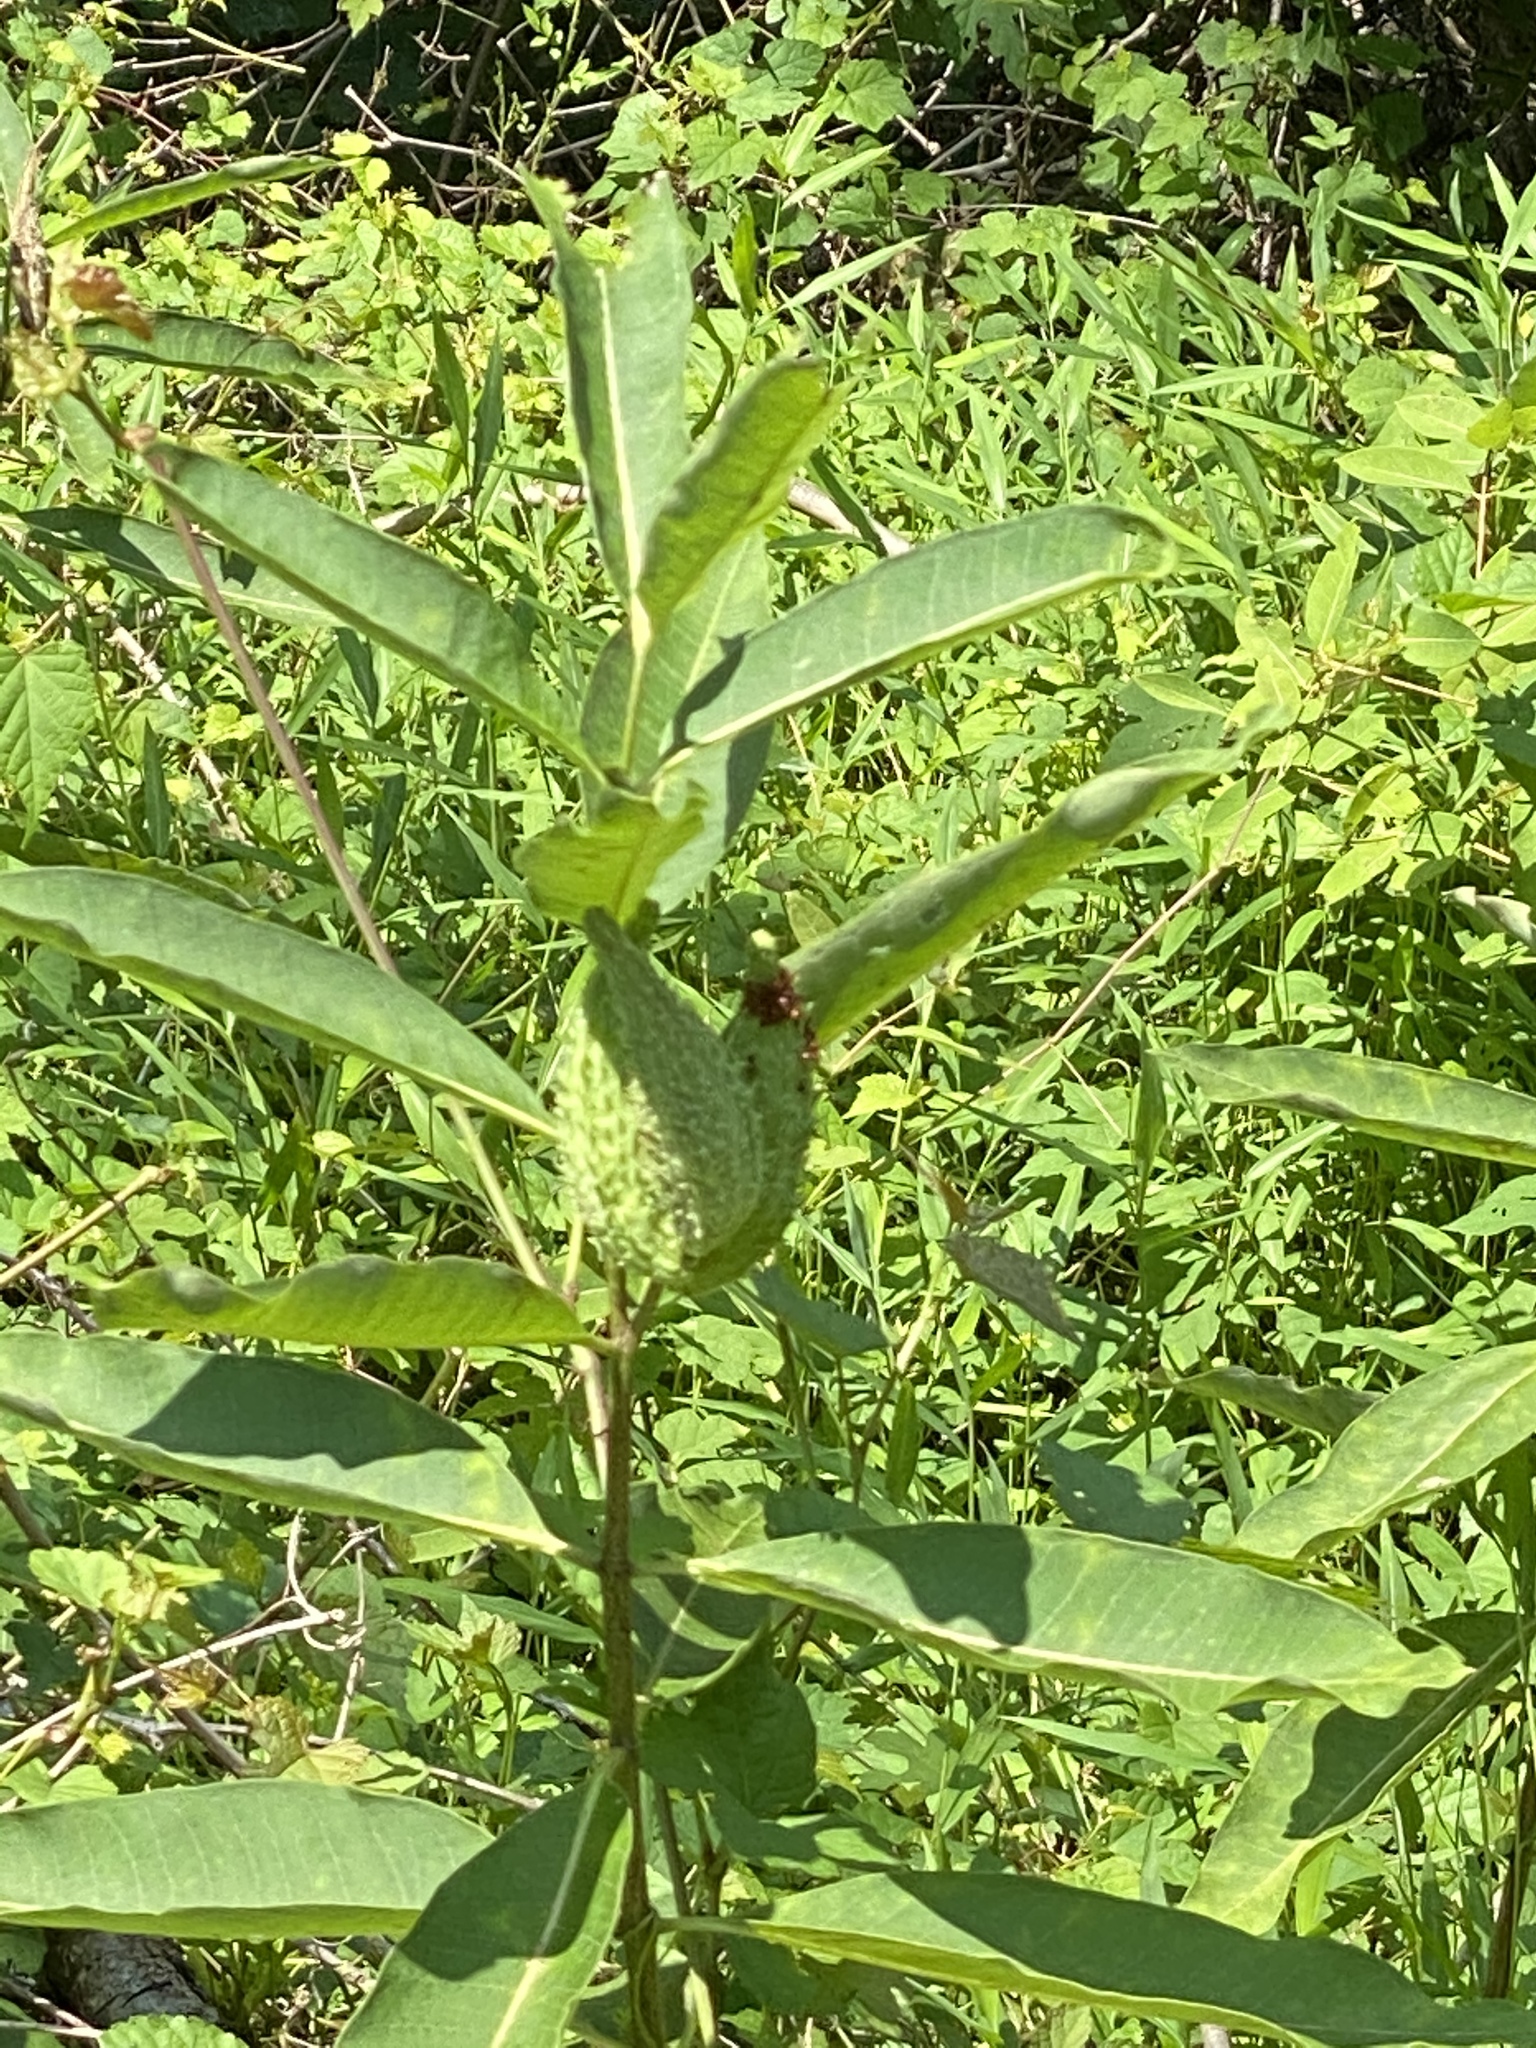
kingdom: Plantae
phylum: Tracheophyta
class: Magnoliopsida
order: Gentianales
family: Apocynaceae
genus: Asclepias
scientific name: Asclepias syriaca
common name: Common milkweed
